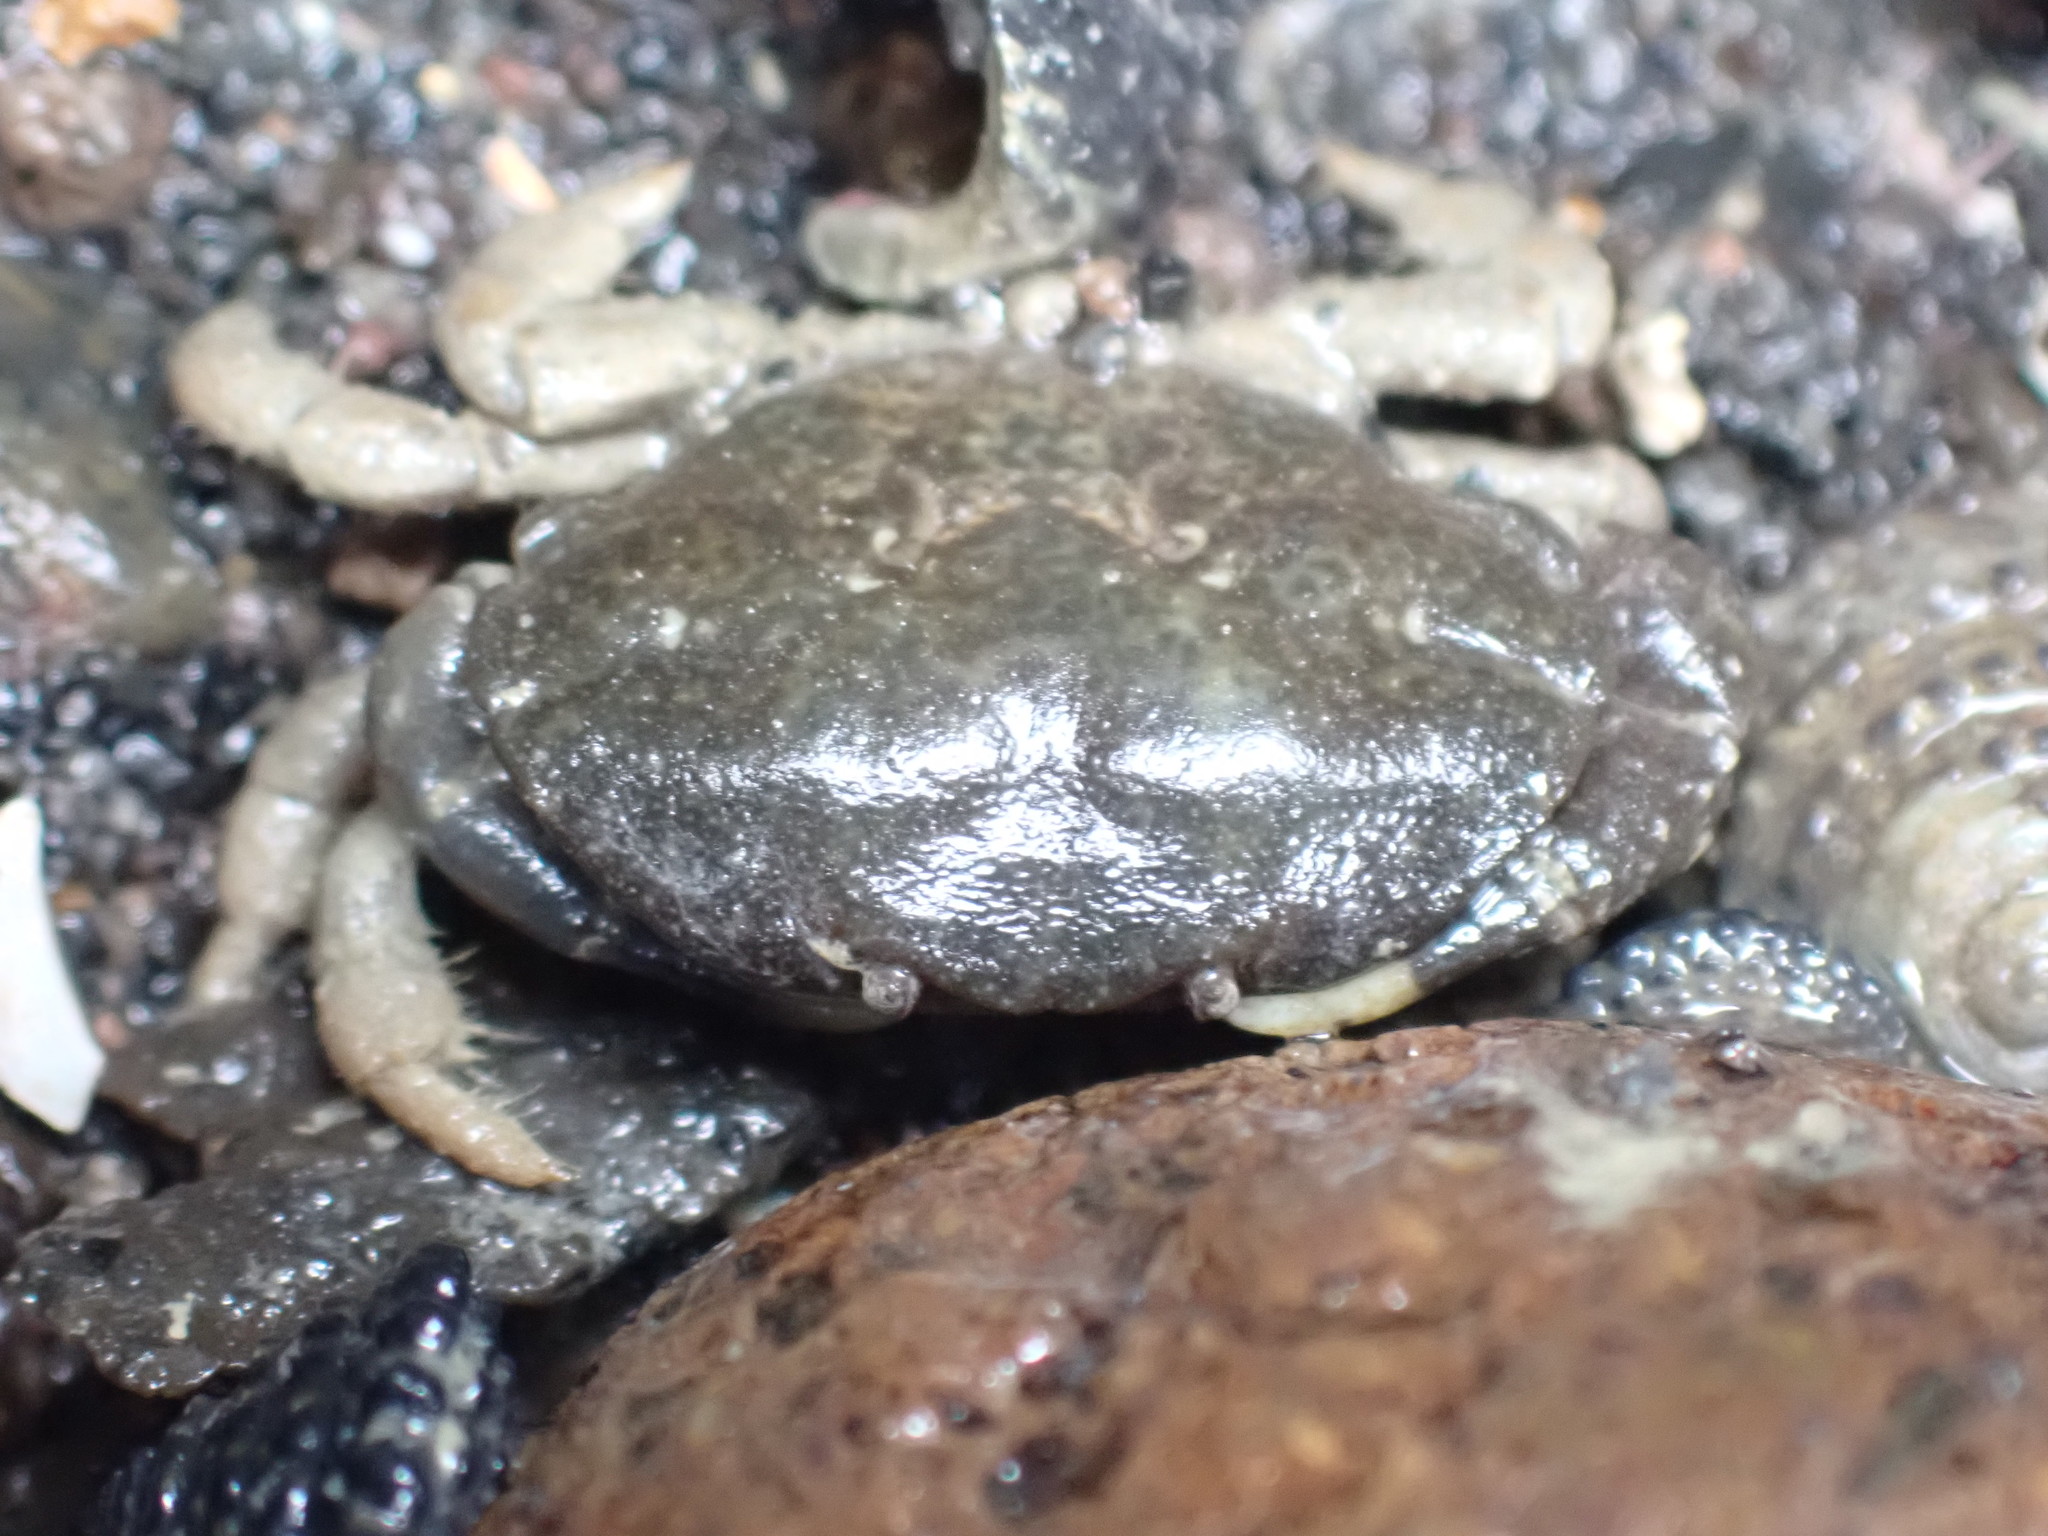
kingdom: Animalia
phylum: Arthropoda
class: Malacostraca
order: Decapoda
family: Heteroziidae
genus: Heterozius
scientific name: Heterozius rotundifrons
